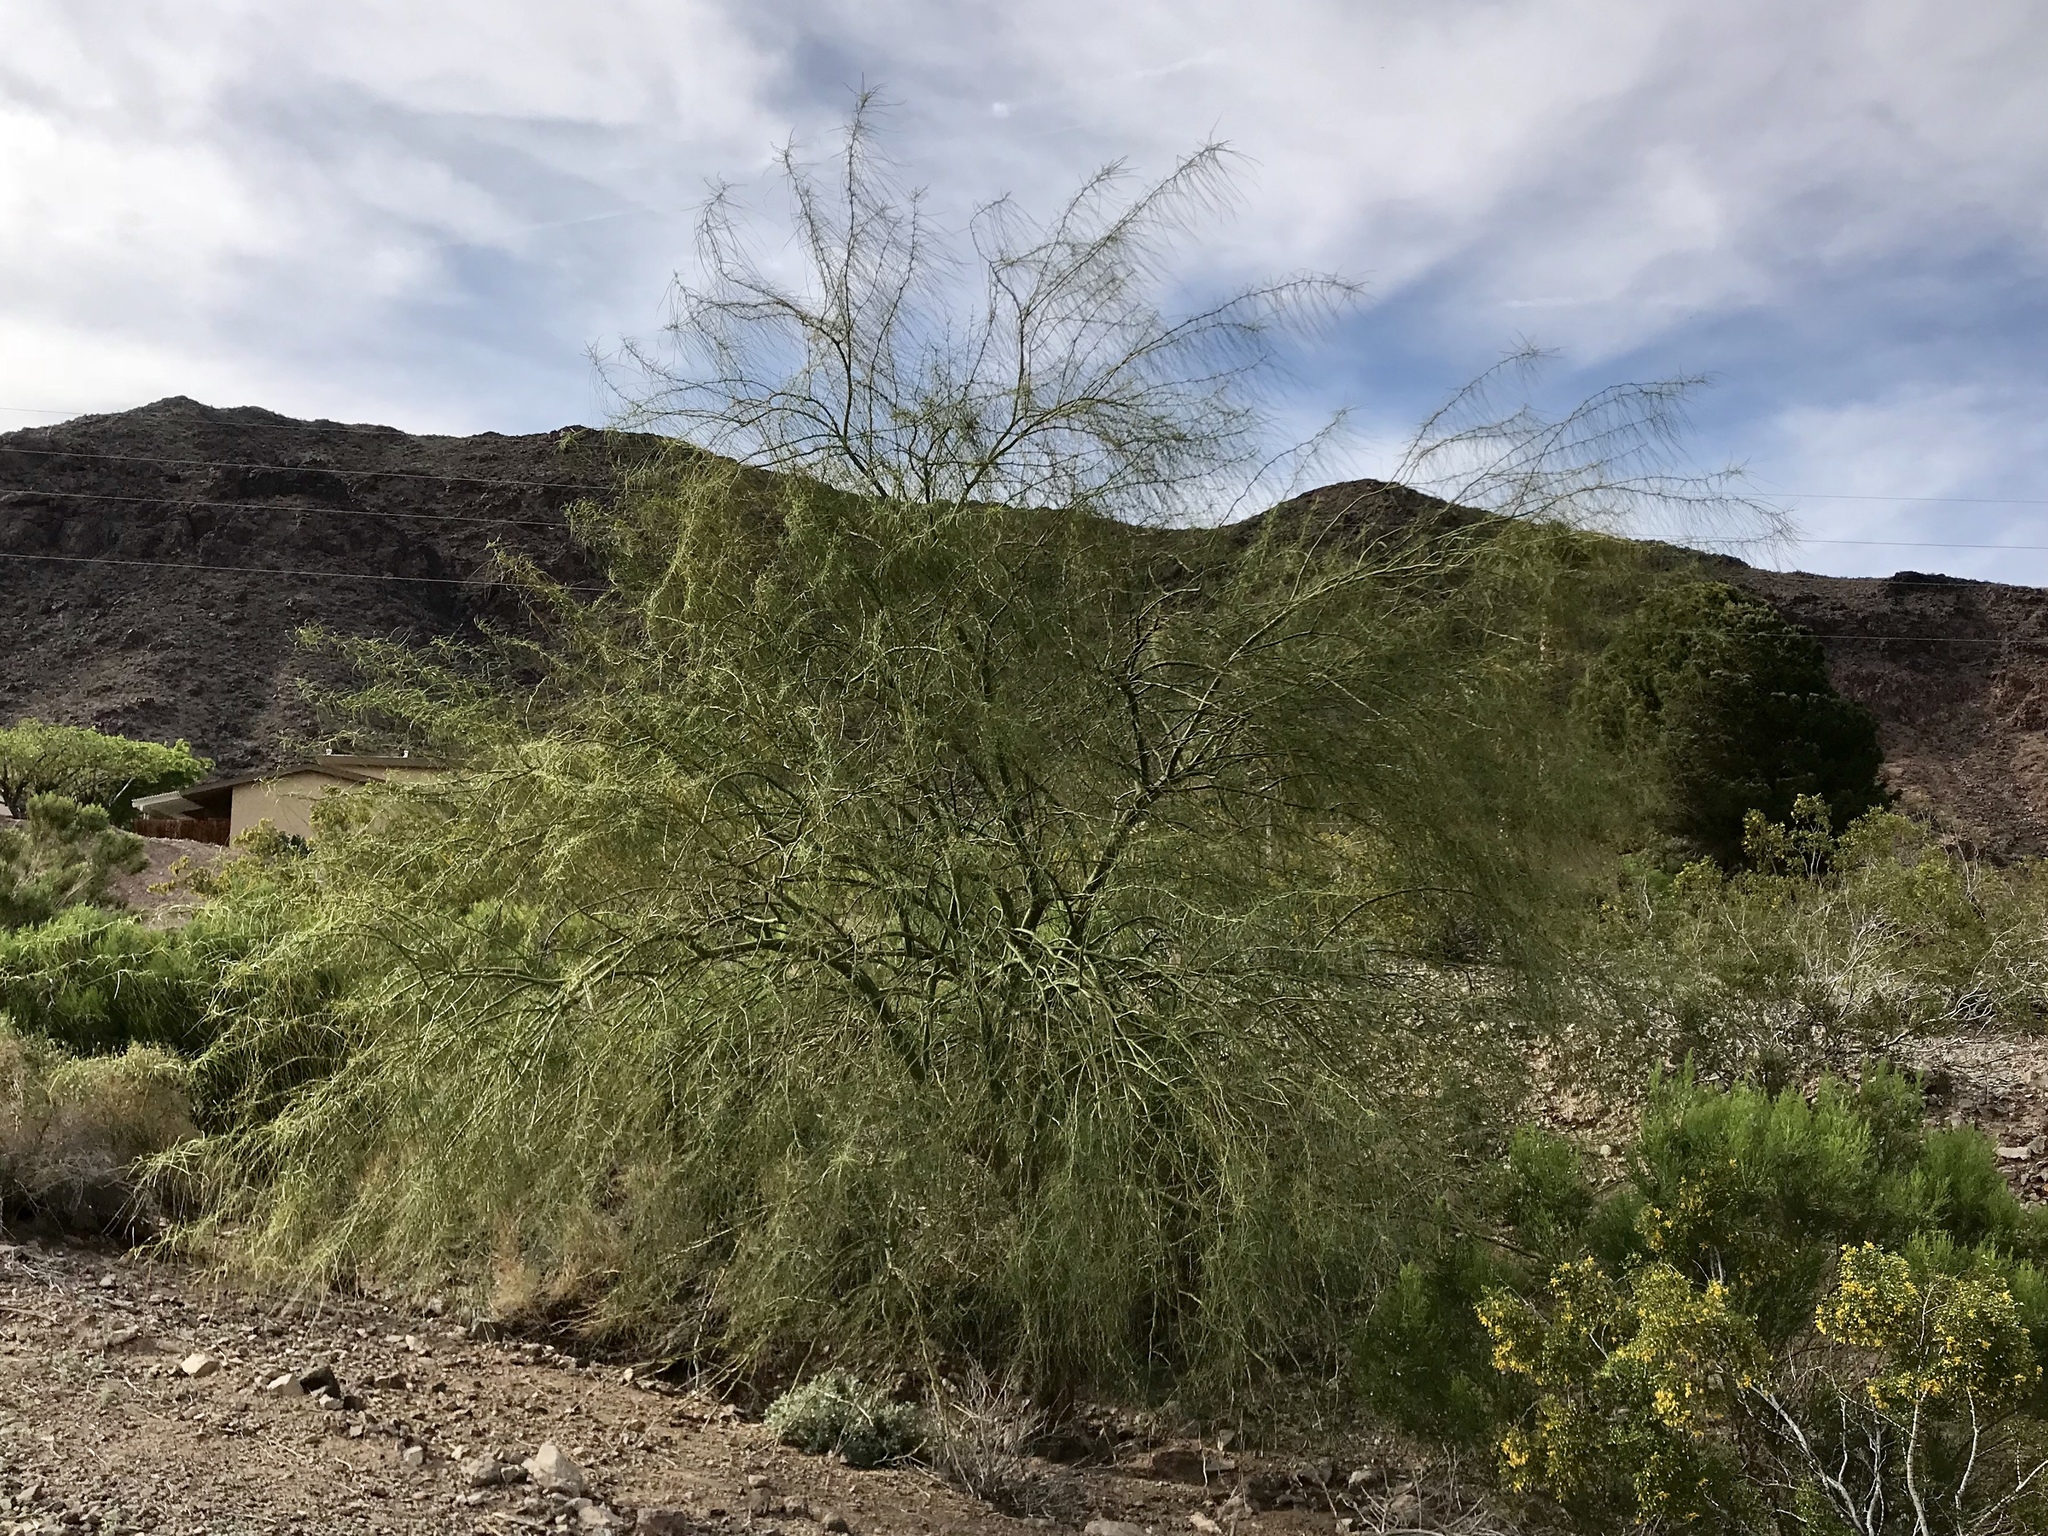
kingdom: Plantae
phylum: Tracheophyta
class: Magnoliopsida
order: Fabales
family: Fabaceae
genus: Parkinsonia
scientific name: Parkinsonia aculeata
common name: Jerusalem thorn
